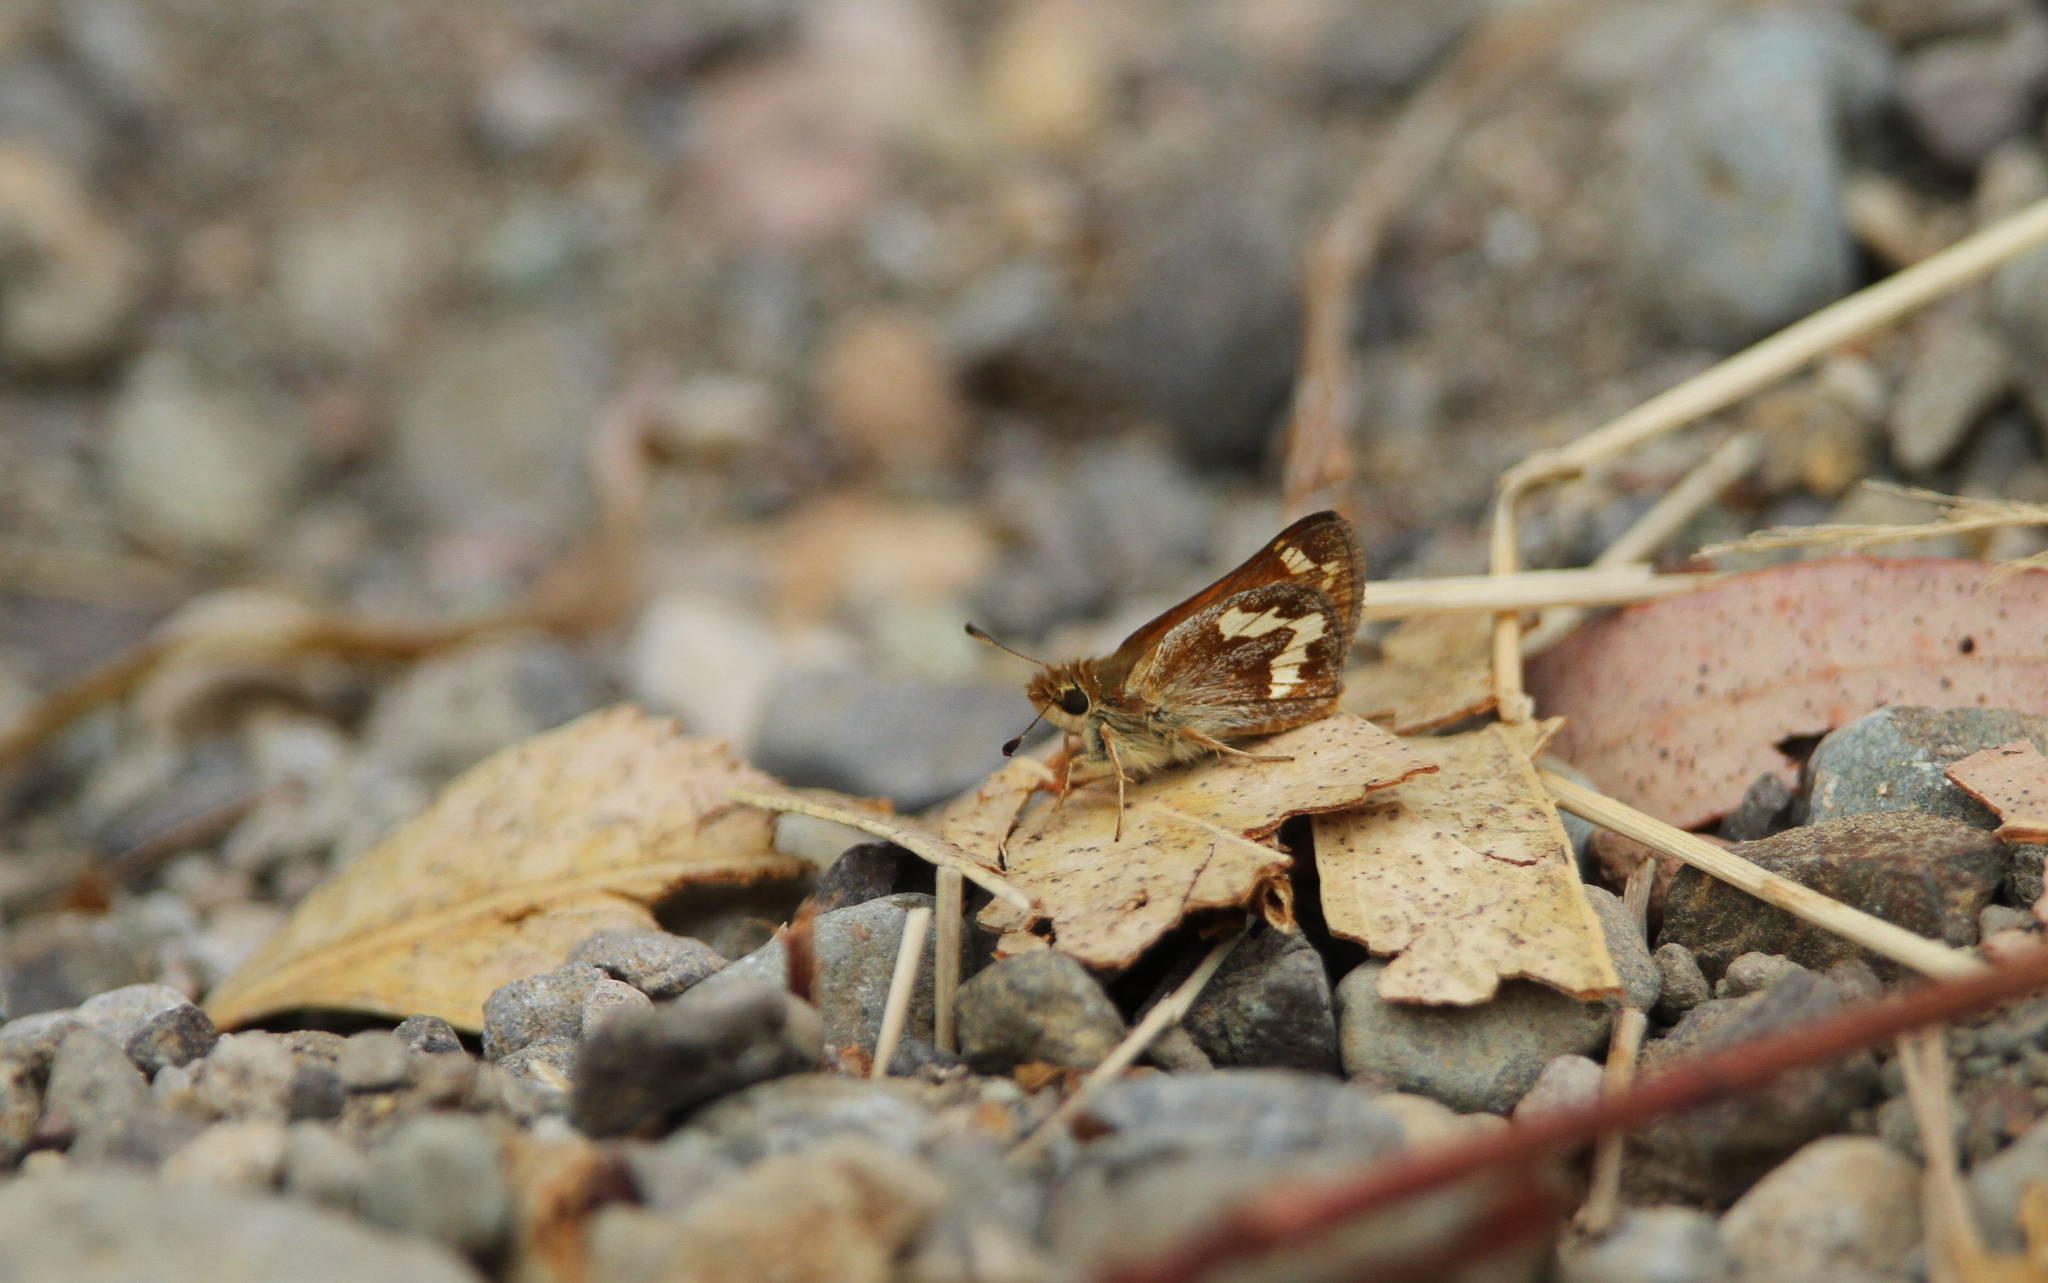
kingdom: Animalia
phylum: Arthropoda
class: Insecta
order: Lepidoptera
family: Hesperiidae
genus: Ochlodes
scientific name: Ochlodes sylvanoides
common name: Woodland skipper
